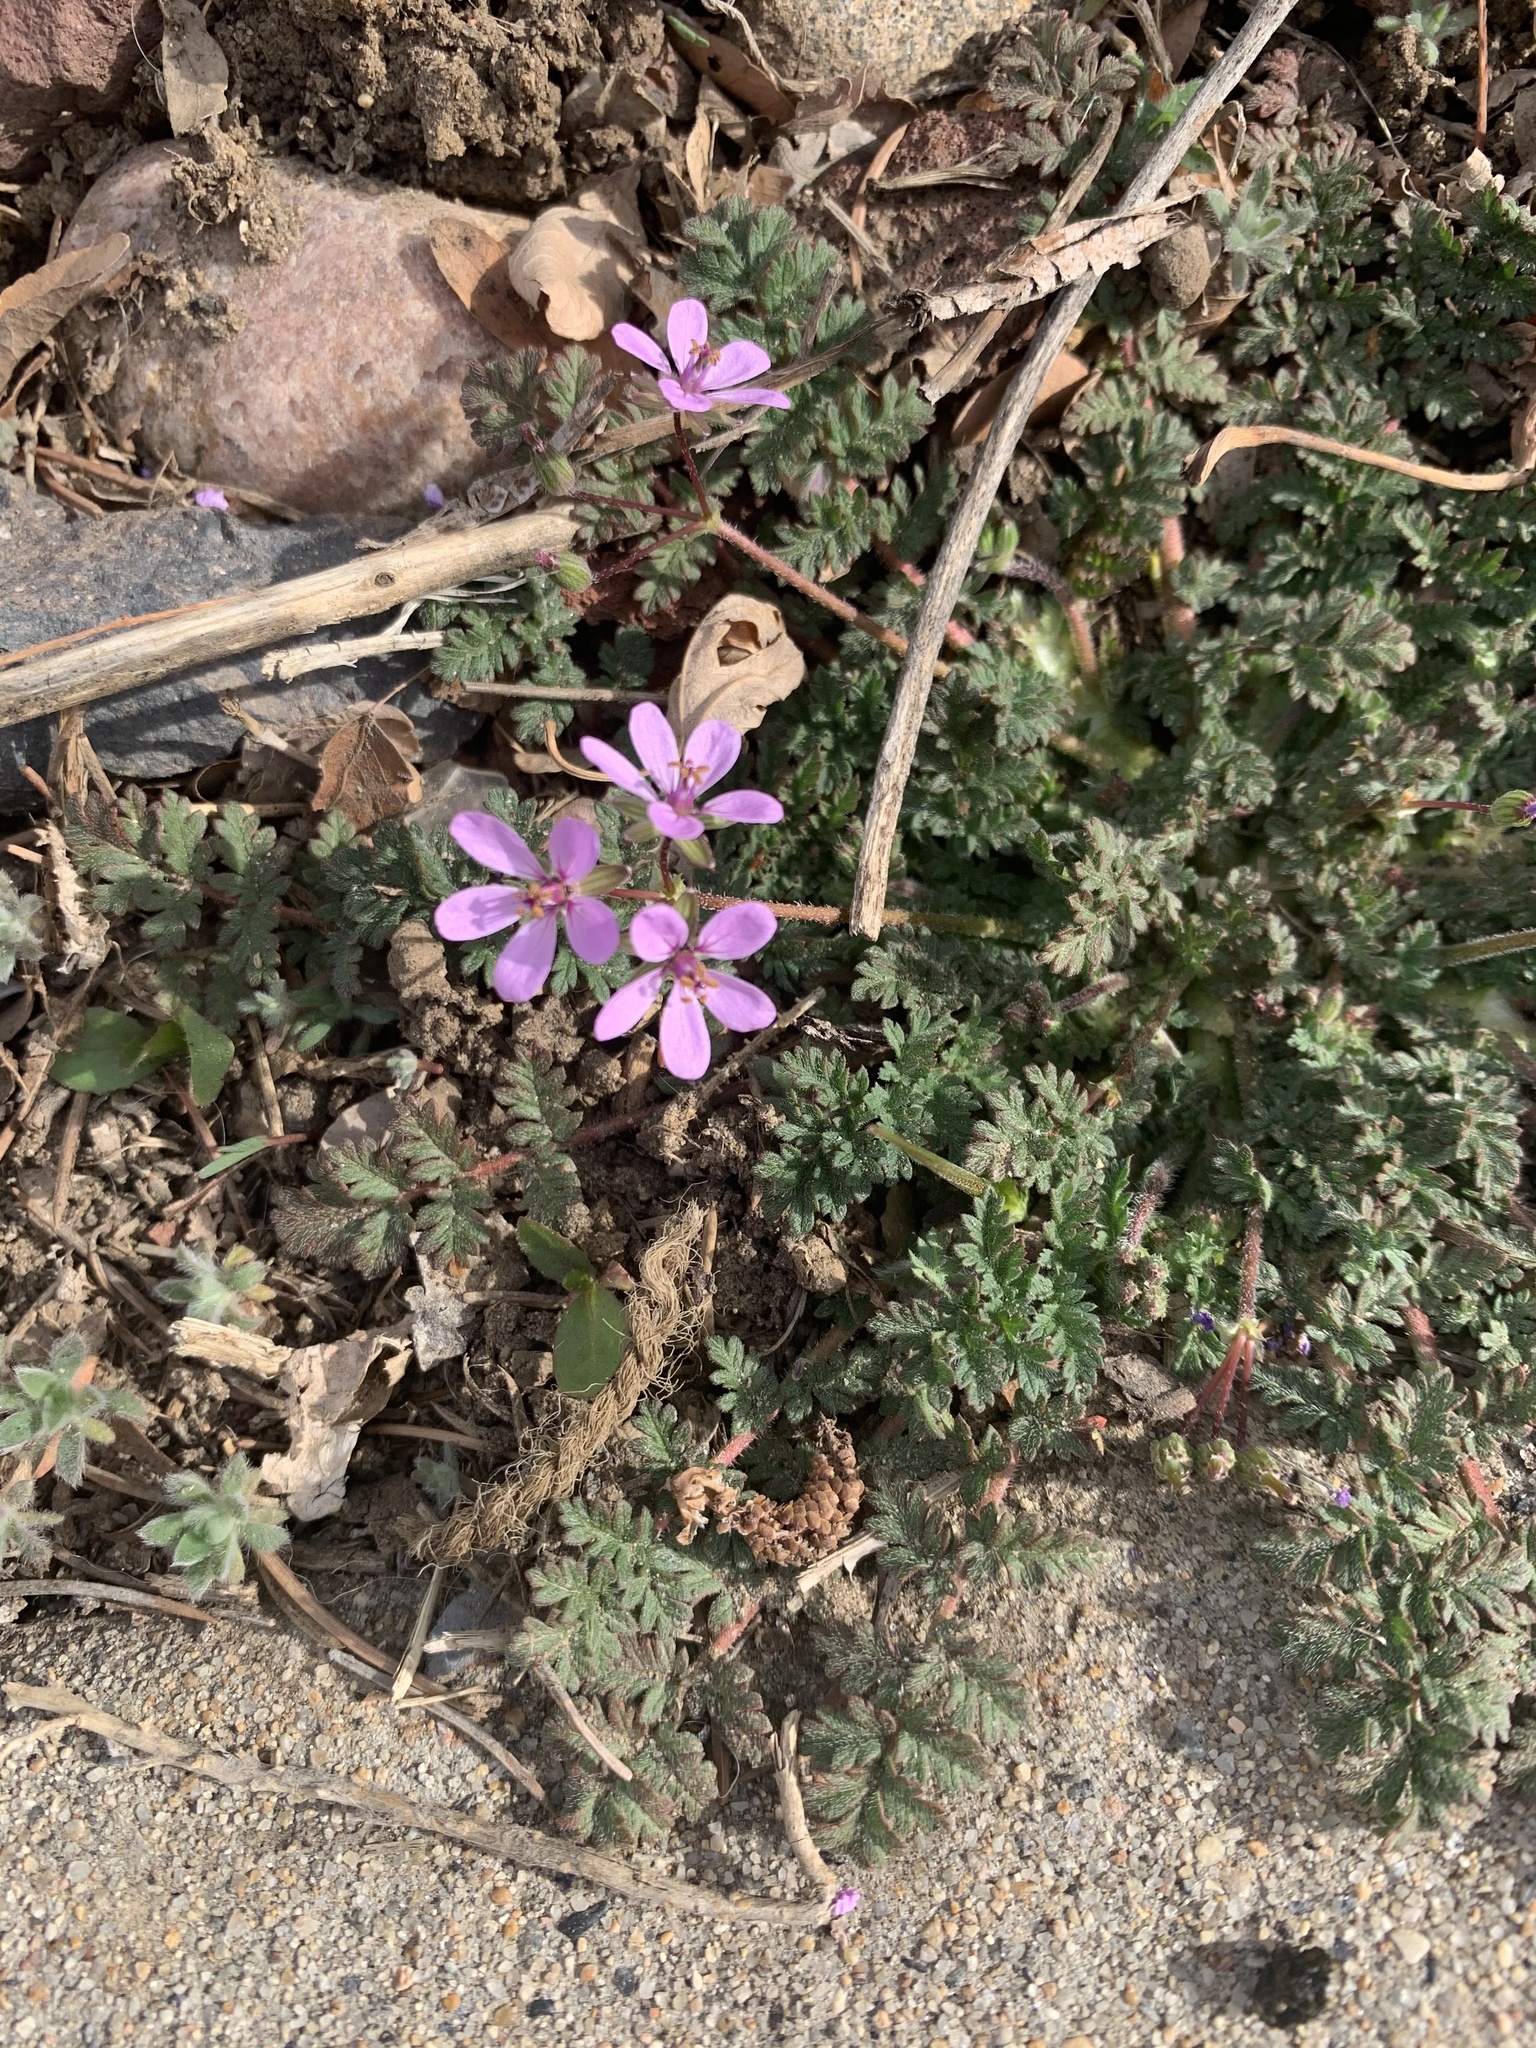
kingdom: Plantae
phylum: Tracheophyta
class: Magnoliopsida
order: Geraniales
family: Geraniaceae
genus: Erodium
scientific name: Erodium cicutarium
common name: Common stork's-bill
